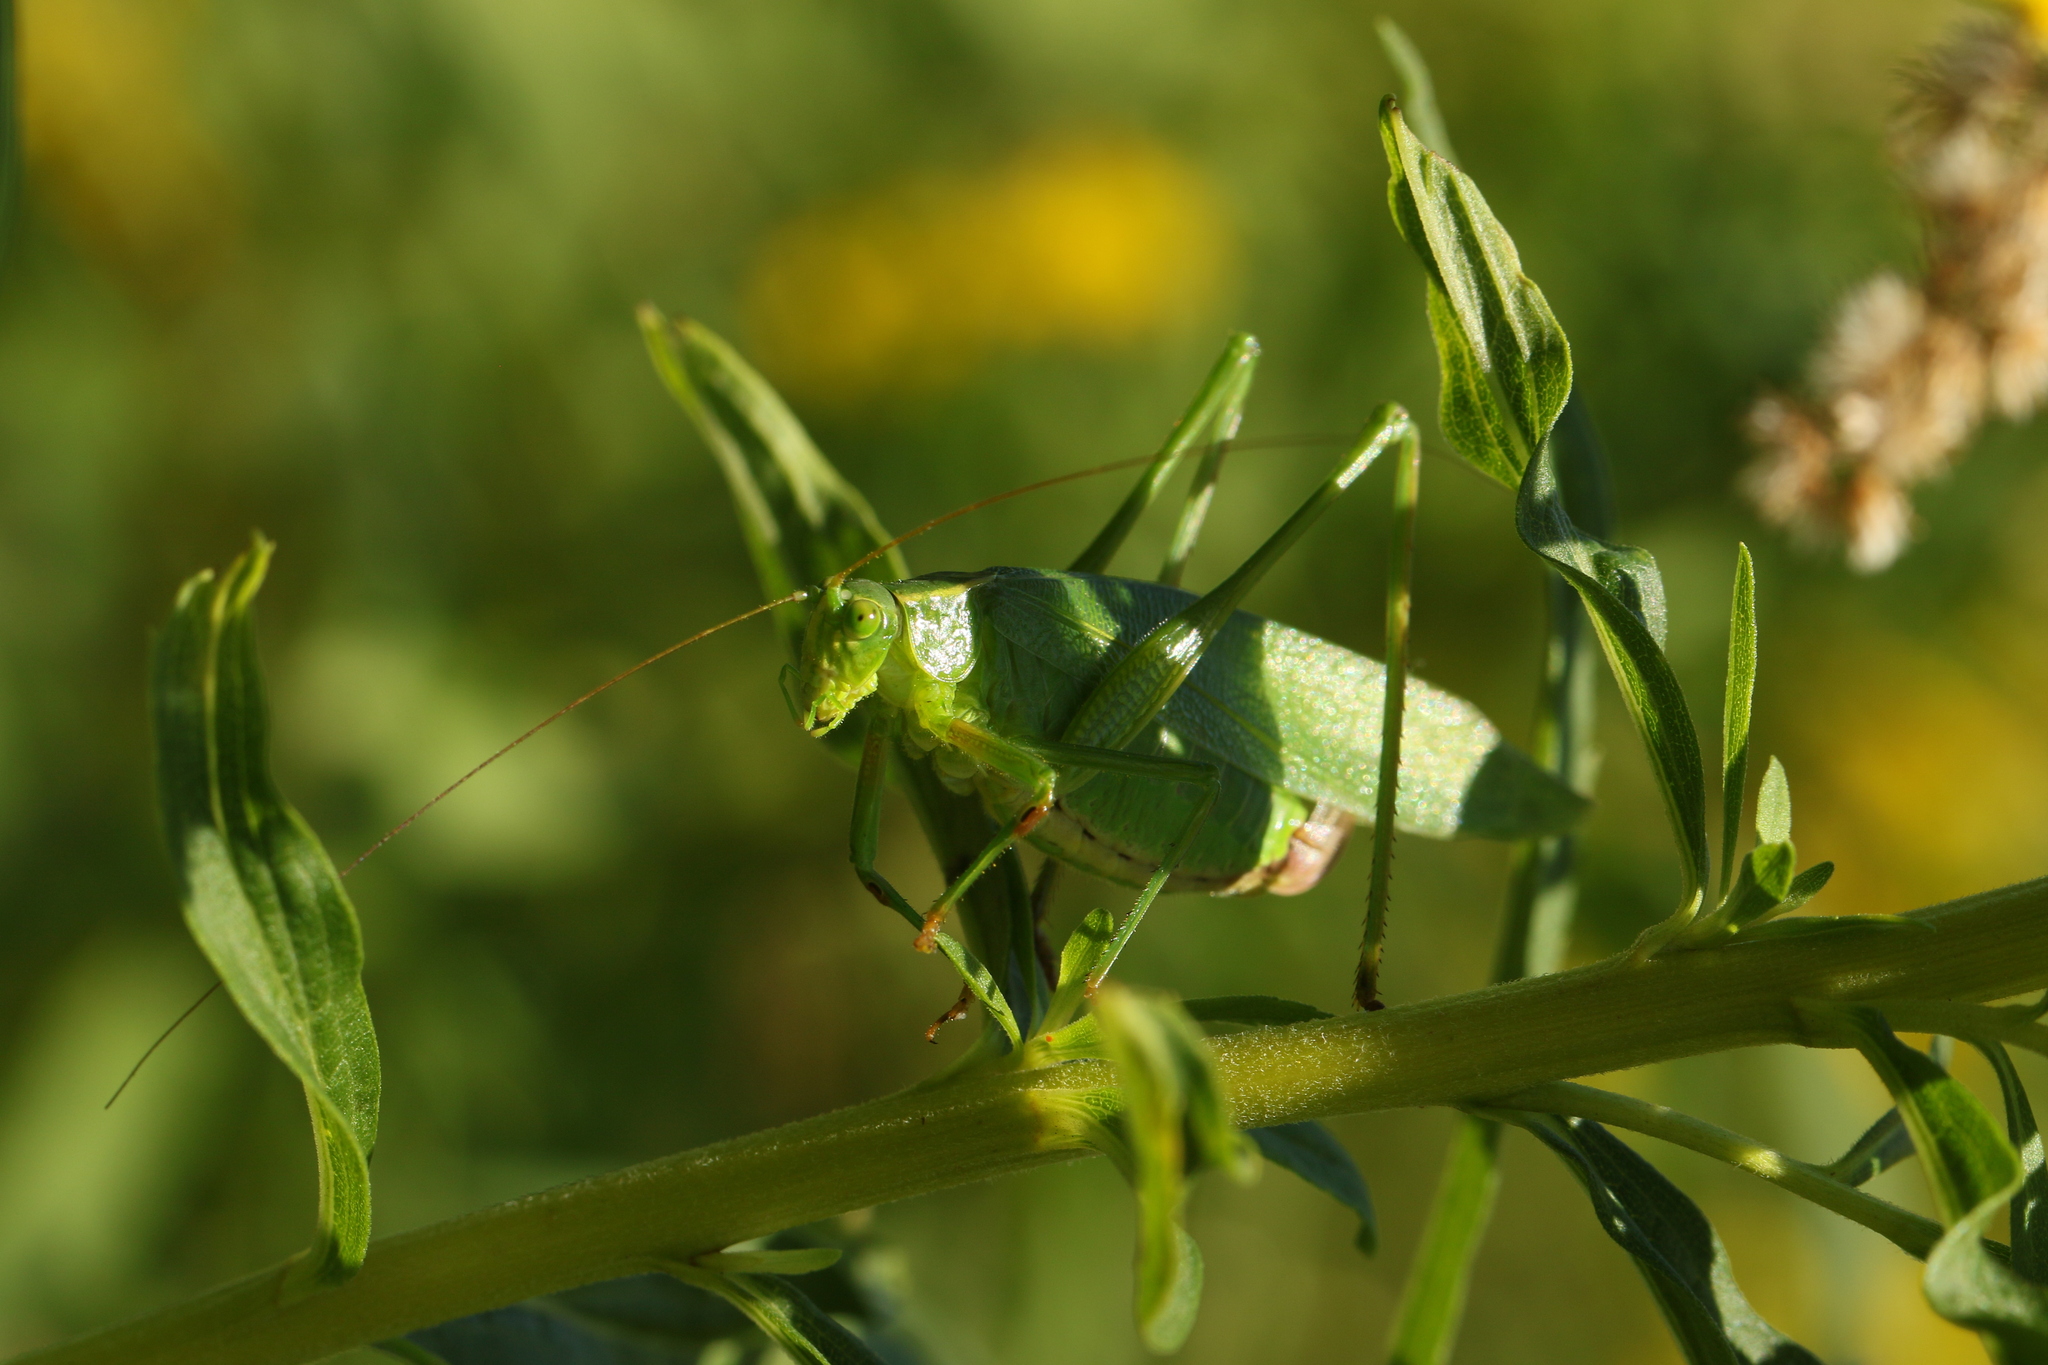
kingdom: Animalia
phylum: Arthropoda
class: Insecta
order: Orthoptera
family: Tettigoniidae
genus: Scudderia
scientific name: Scudderia furcata
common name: Fork-tailed bush katydid
